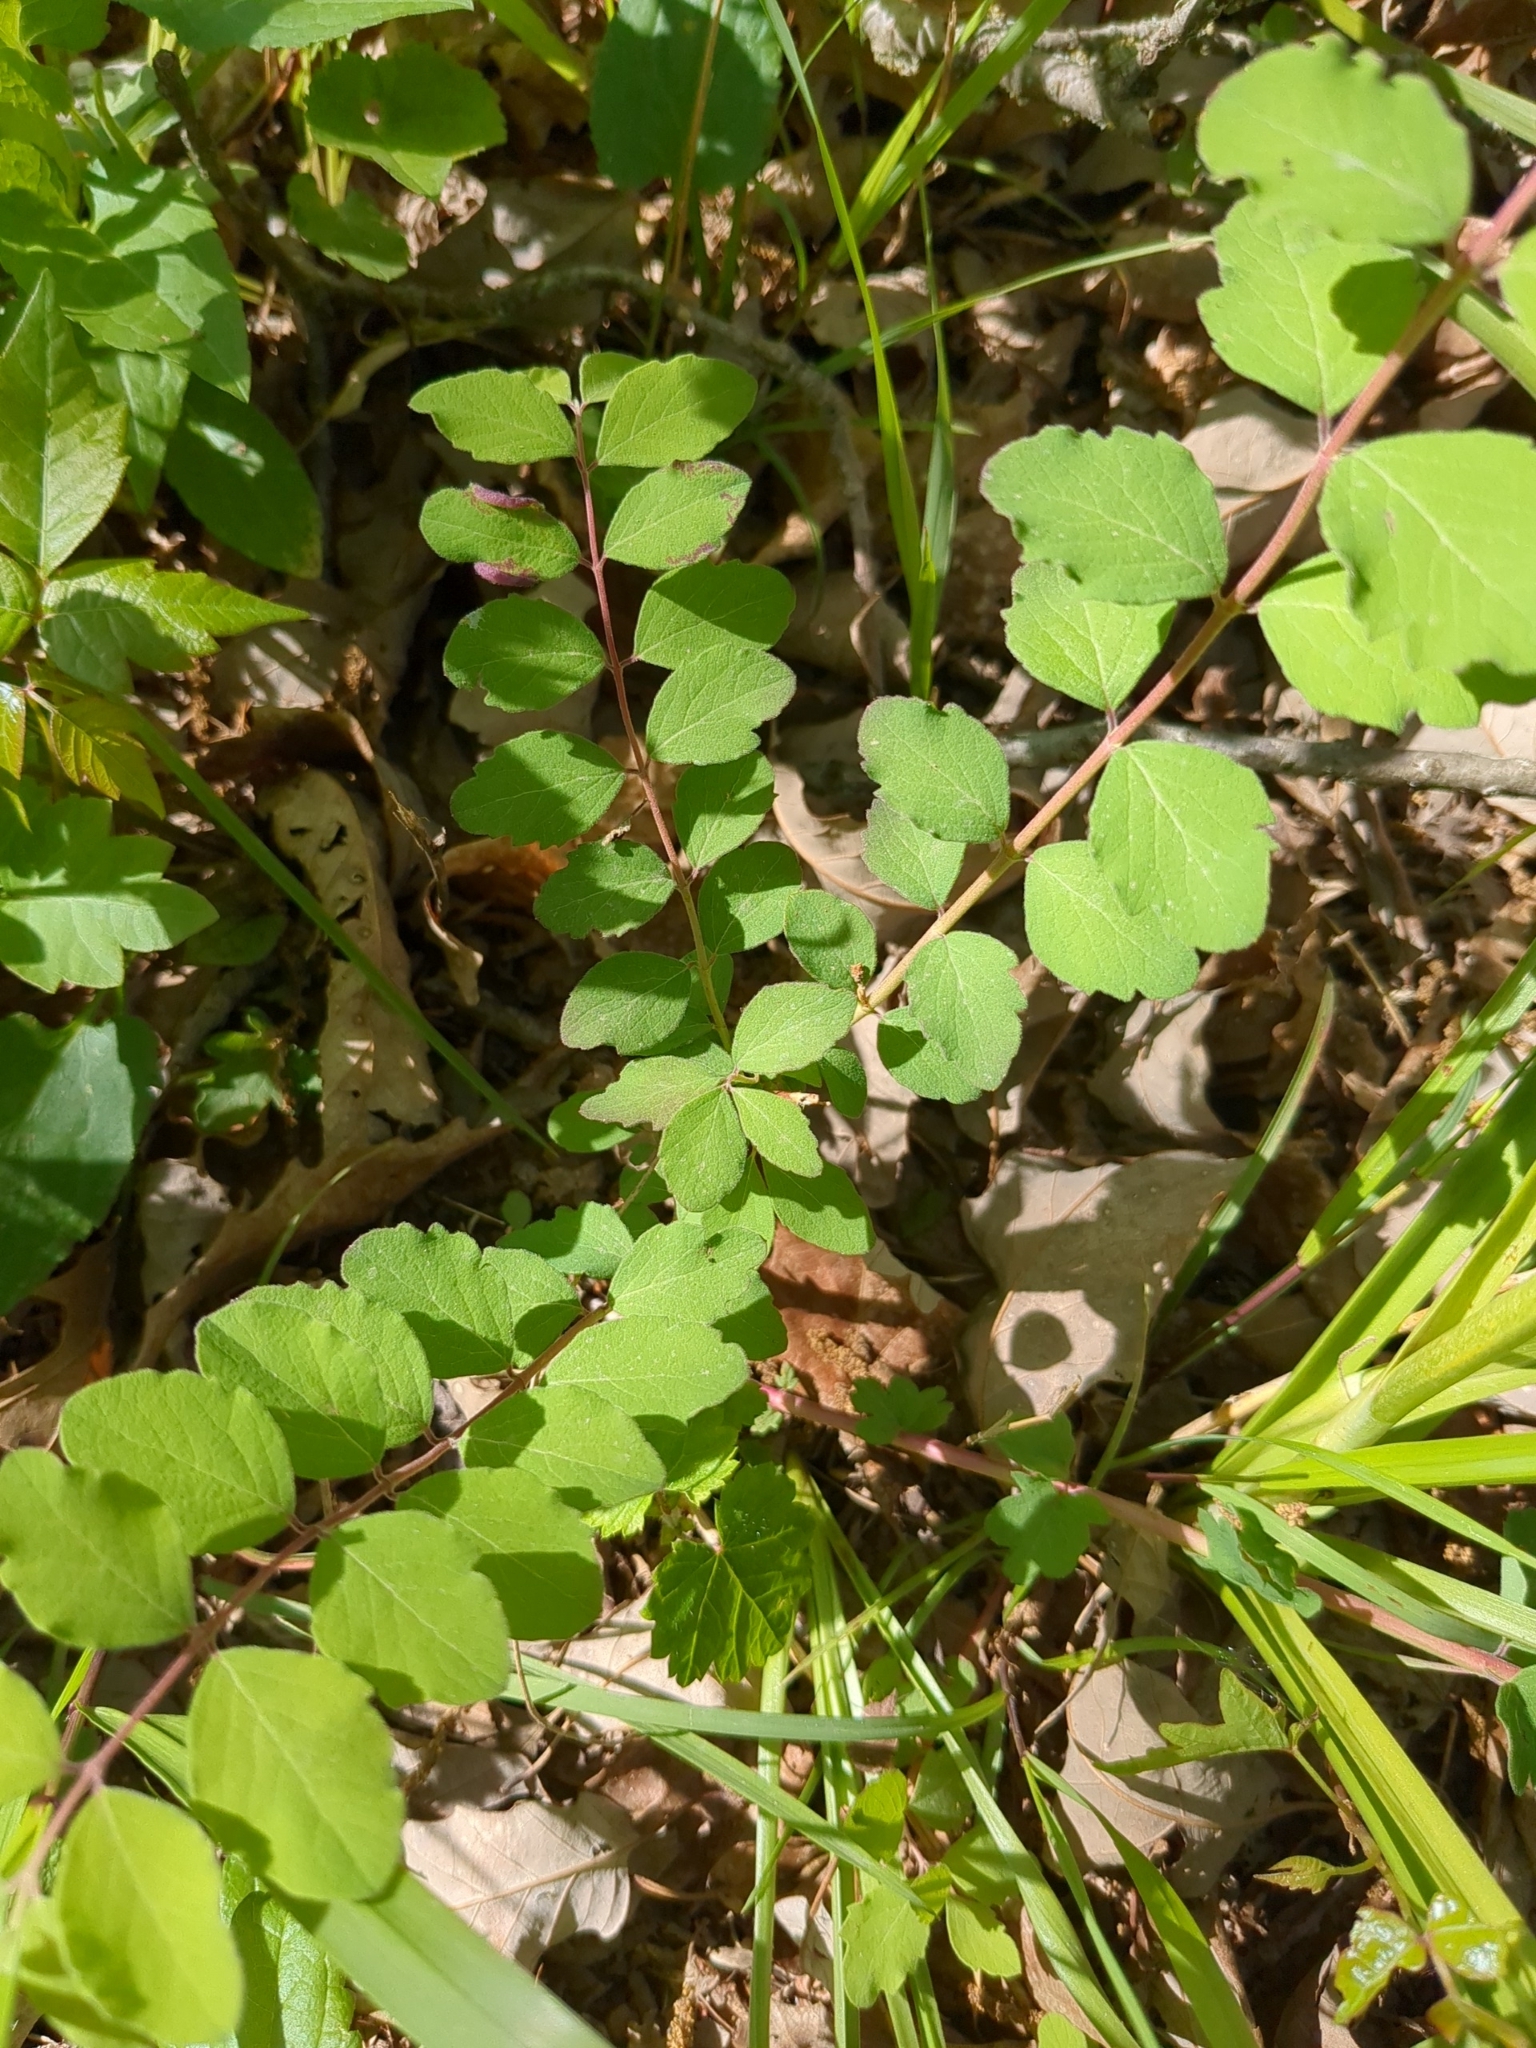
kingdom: Plantae
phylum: Tracheophyta
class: Magnoliopsida
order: Dipsacales
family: Caprifoliaceae
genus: Symphoricarpos
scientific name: Symphoricarpos orbiculatus
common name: Coralberry
